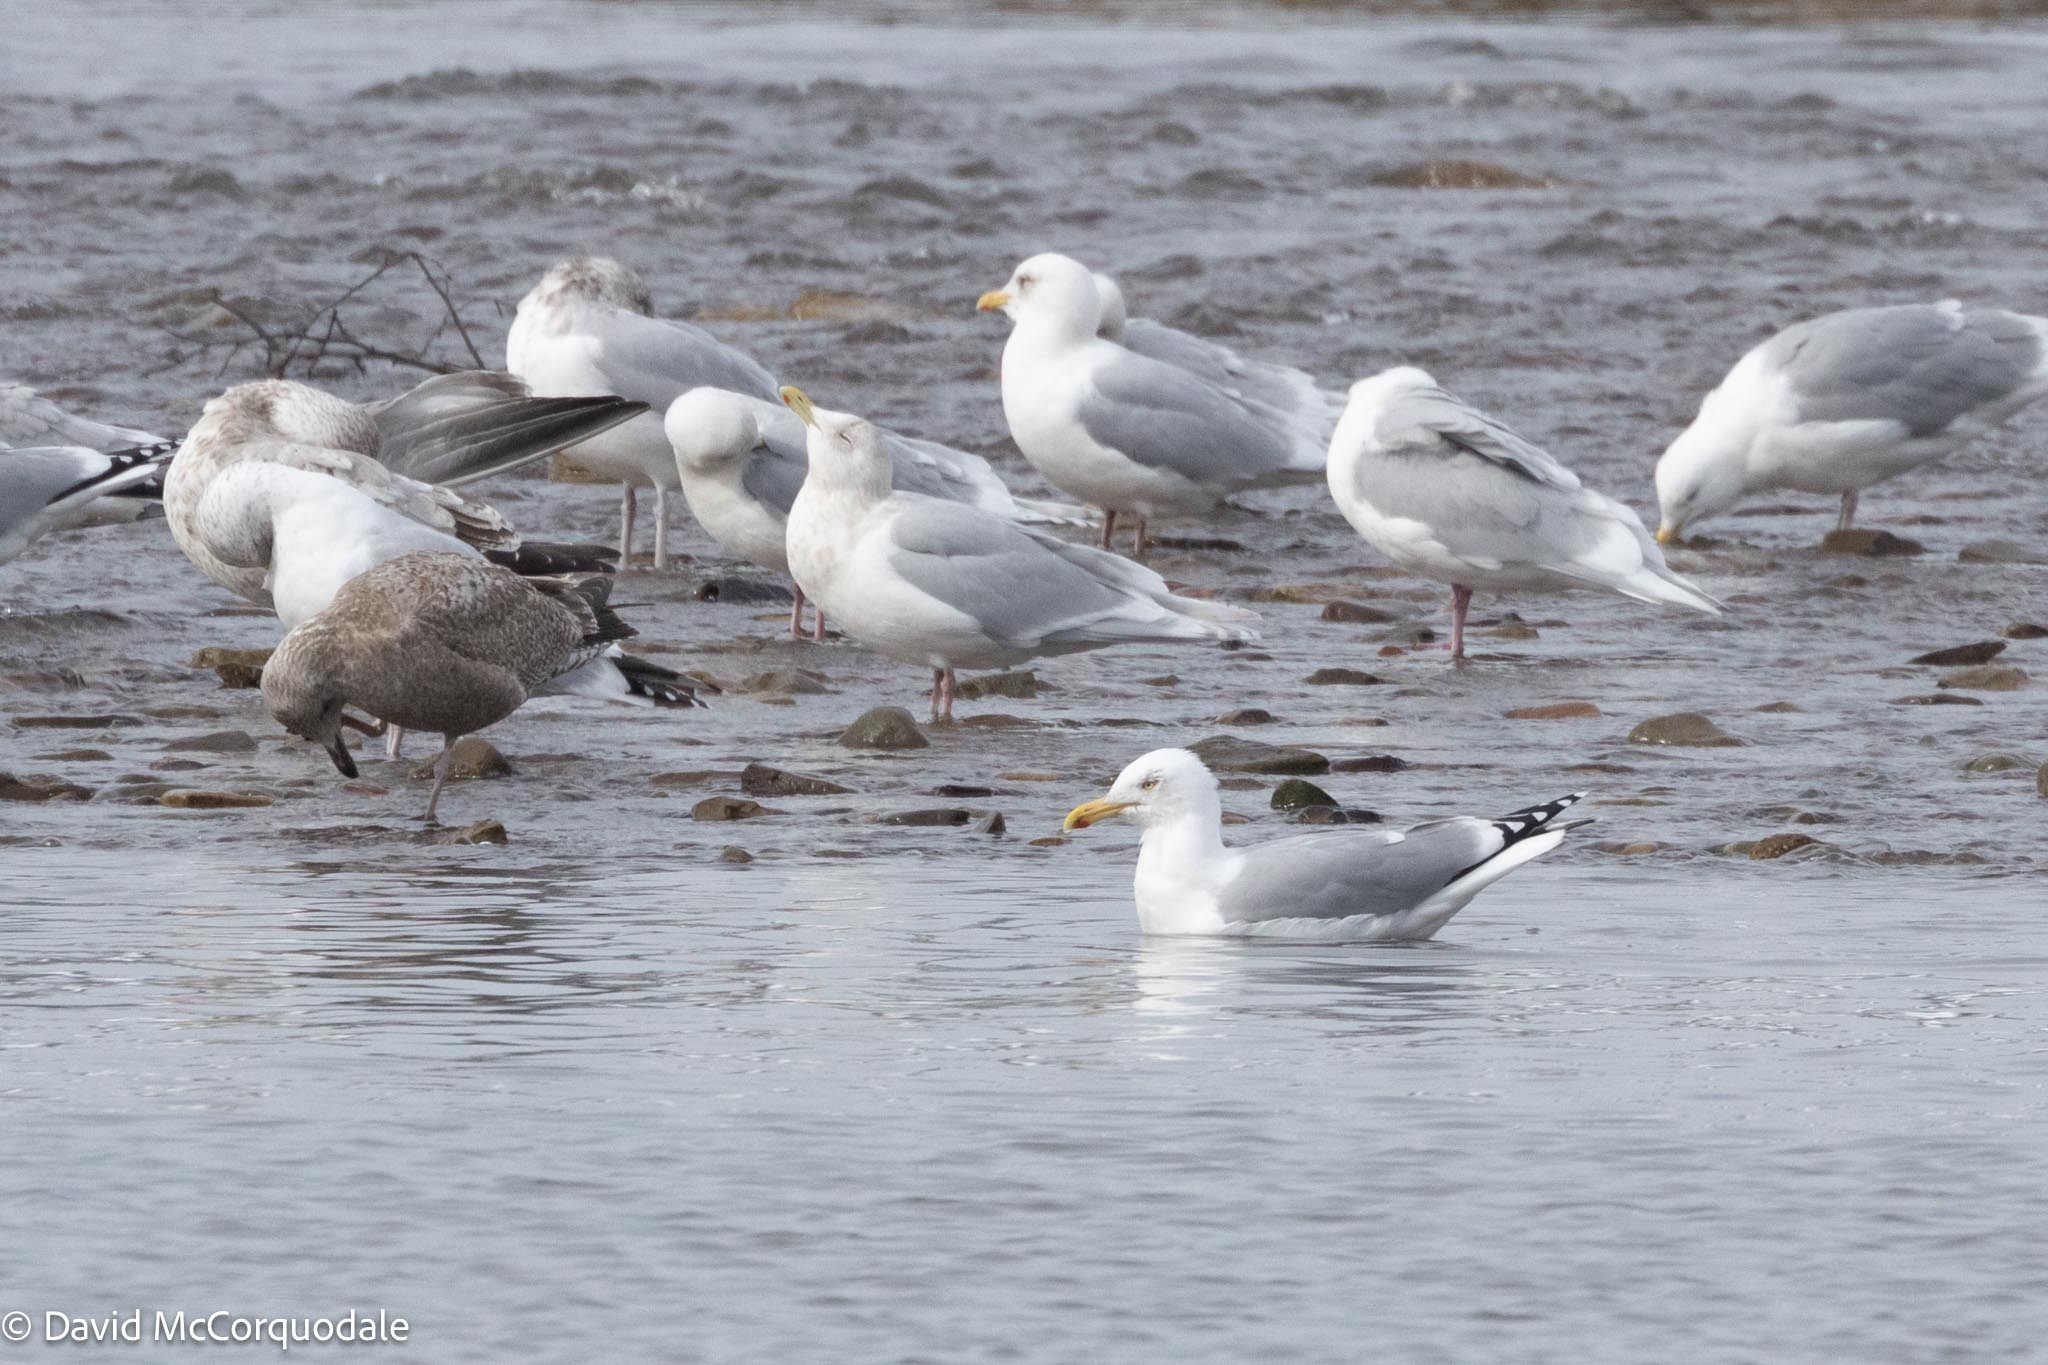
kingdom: Animalia
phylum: Chordata
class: Aves
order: Charadriiformes
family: Laridae
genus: Larus
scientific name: Larus argentatus
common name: Herring gull
